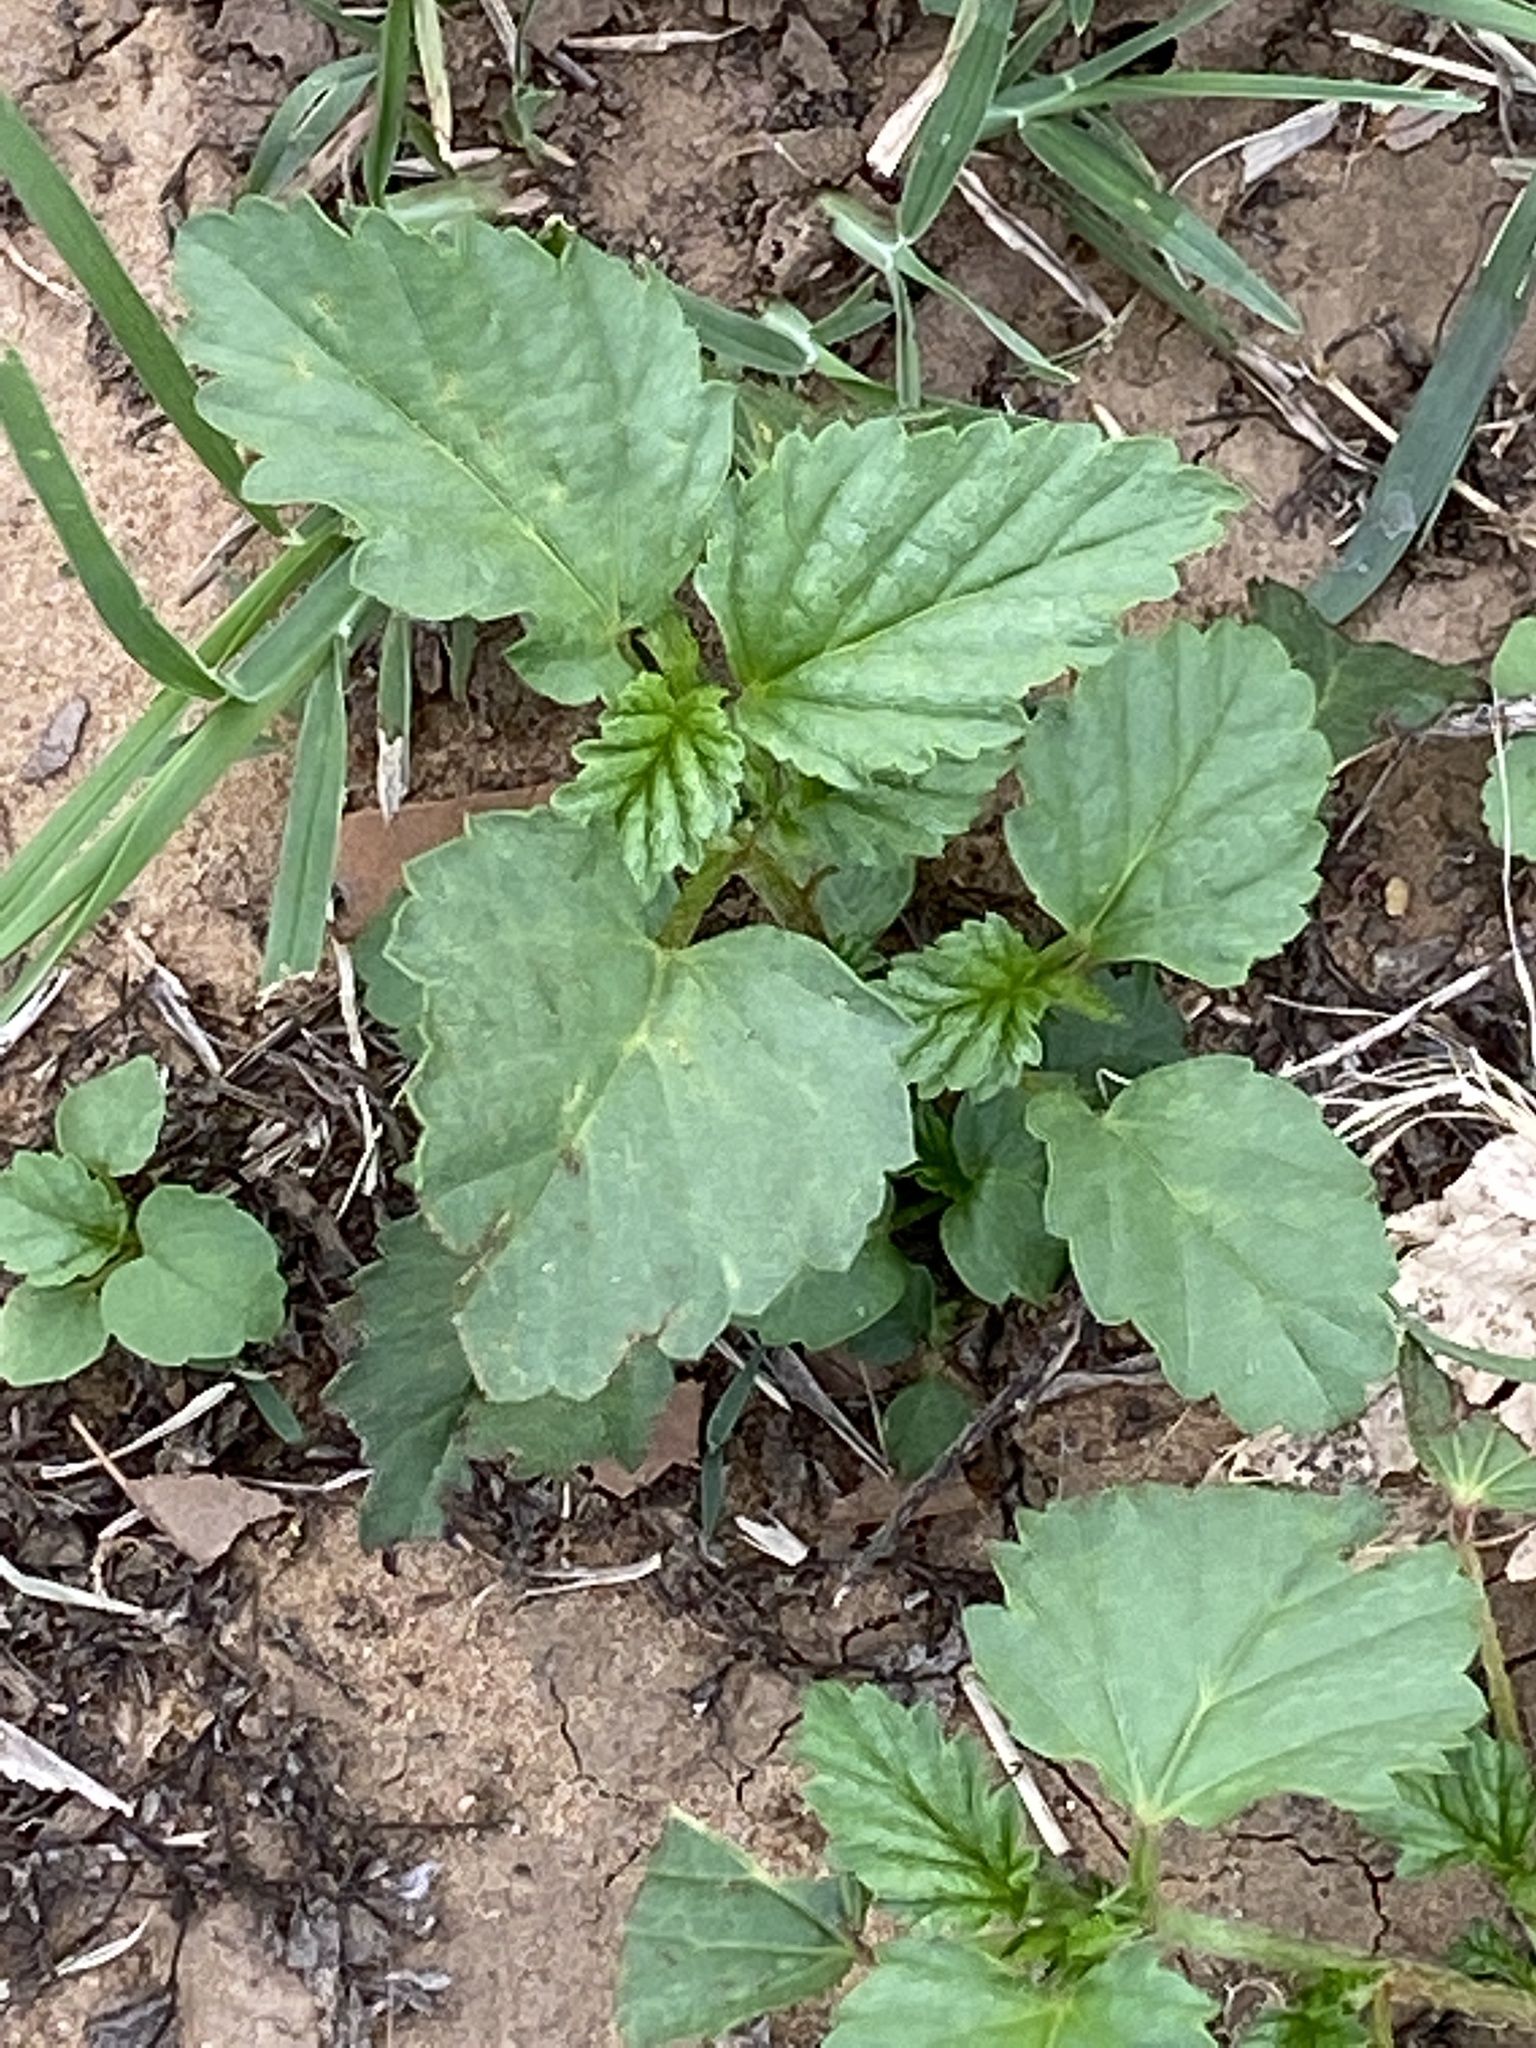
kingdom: Plantae
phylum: Tracheophyta
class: Magnoliopsida
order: Malvales
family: Malvaceae
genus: Malvastrum
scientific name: Malvastrum coromandelianum
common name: Threelobe false mallow
